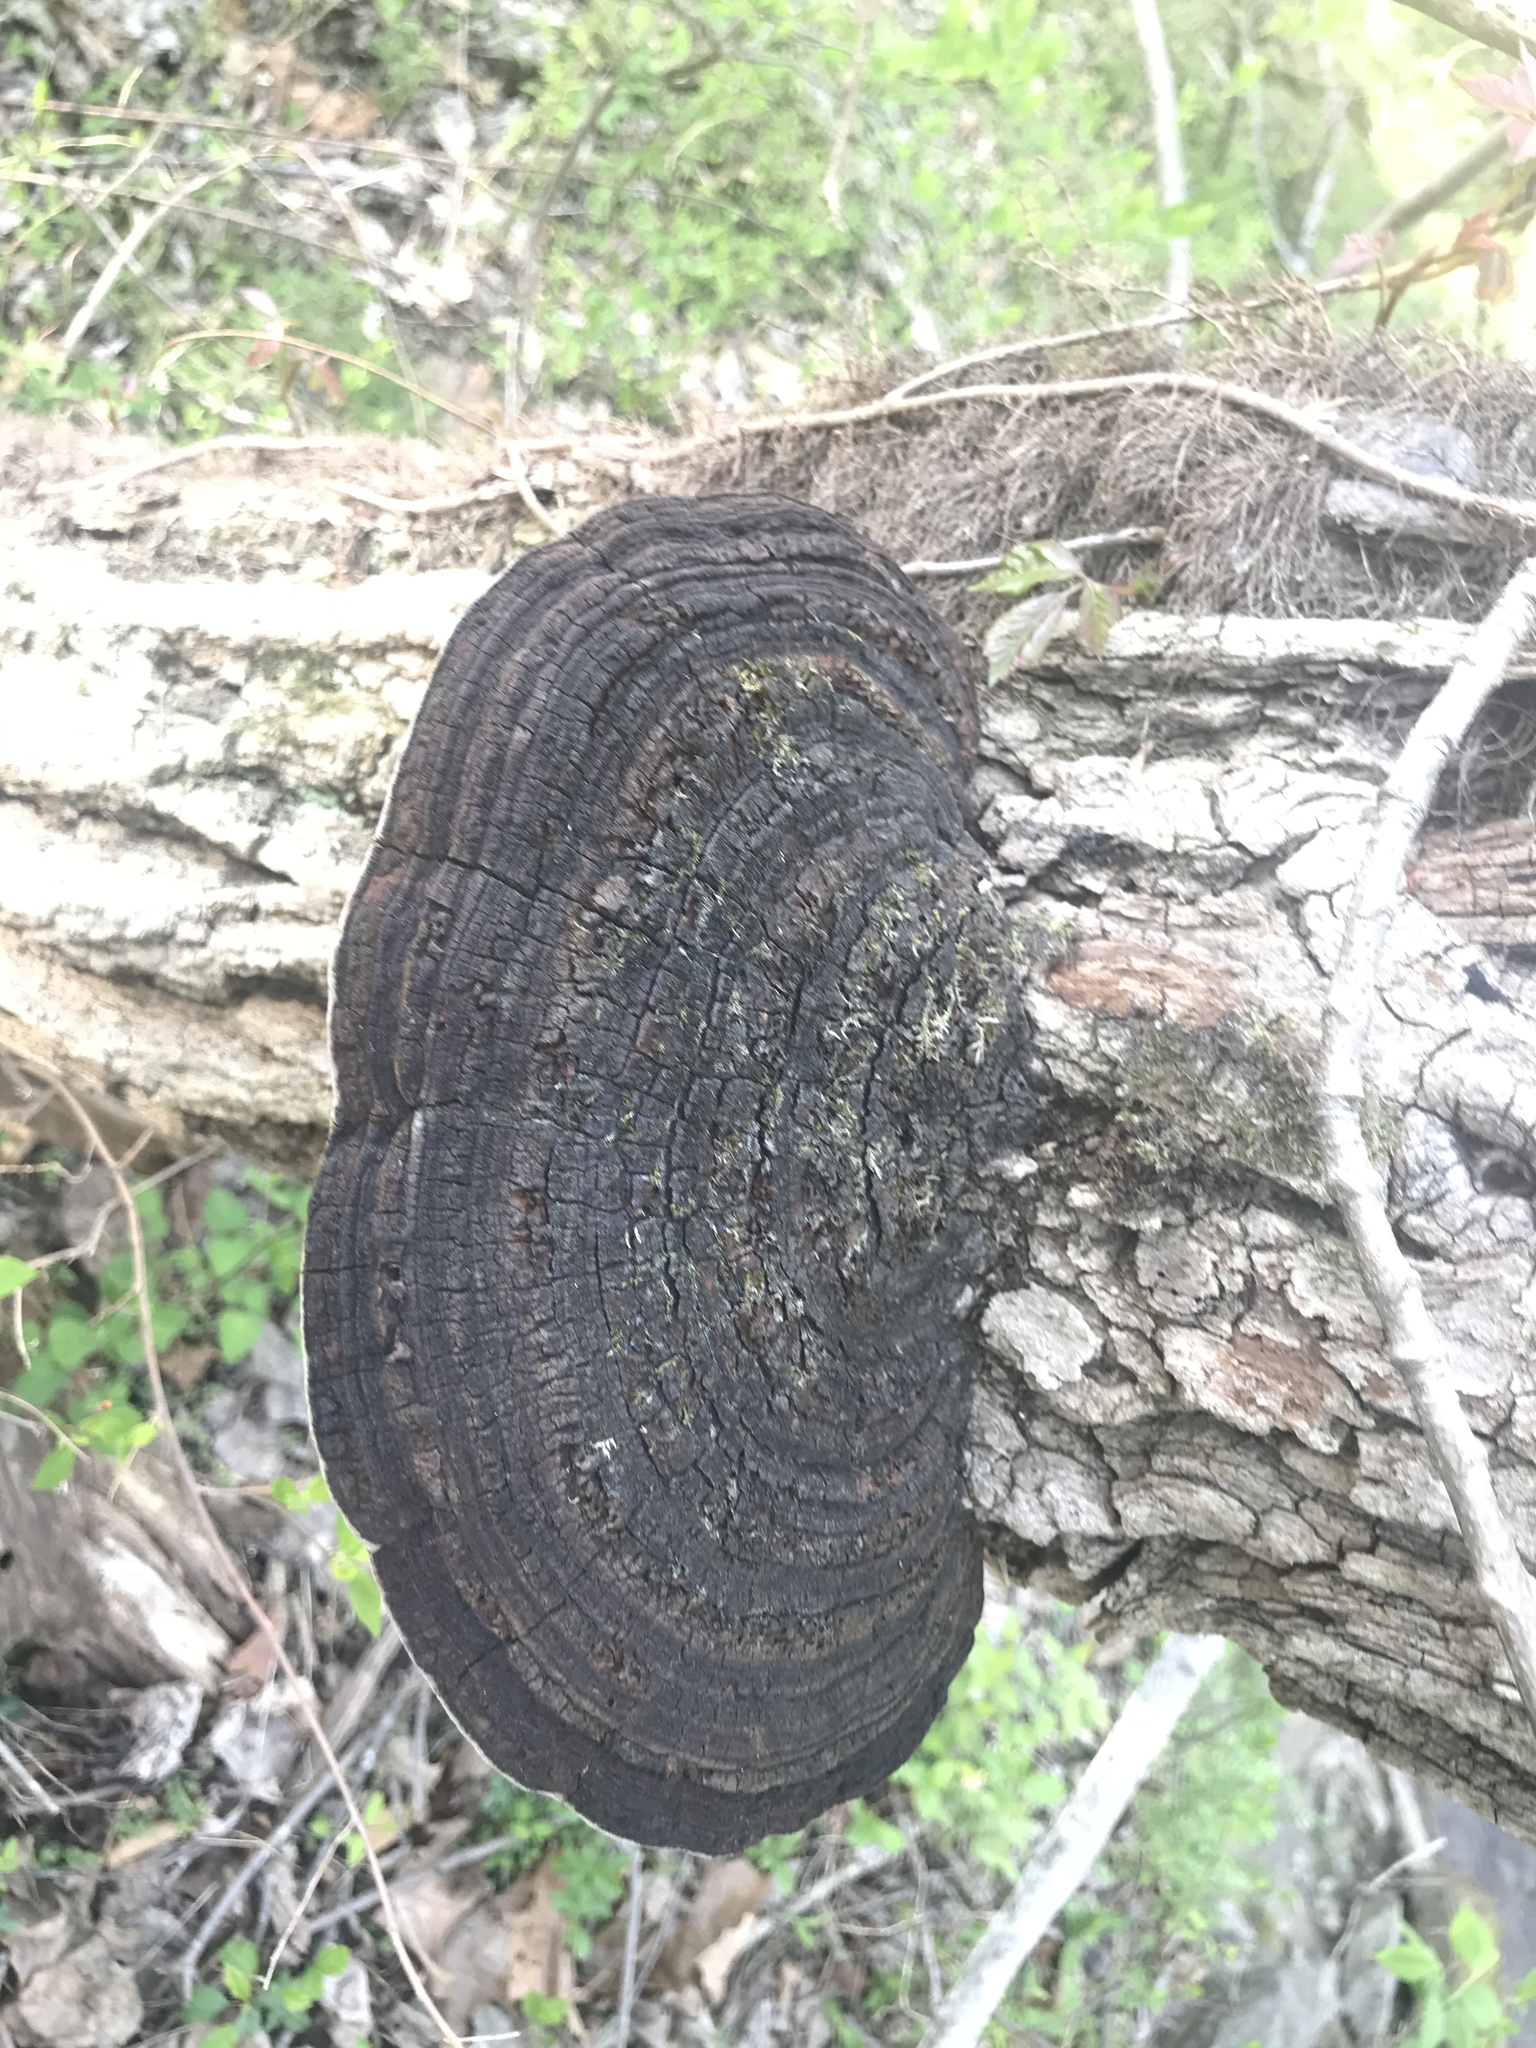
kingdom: Fungi
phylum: Basidiomycota
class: Agaricomycetes
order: Hymenochaetales
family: Hymenochaetaceae
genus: Phellinus
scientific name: Phellinus robiniae
